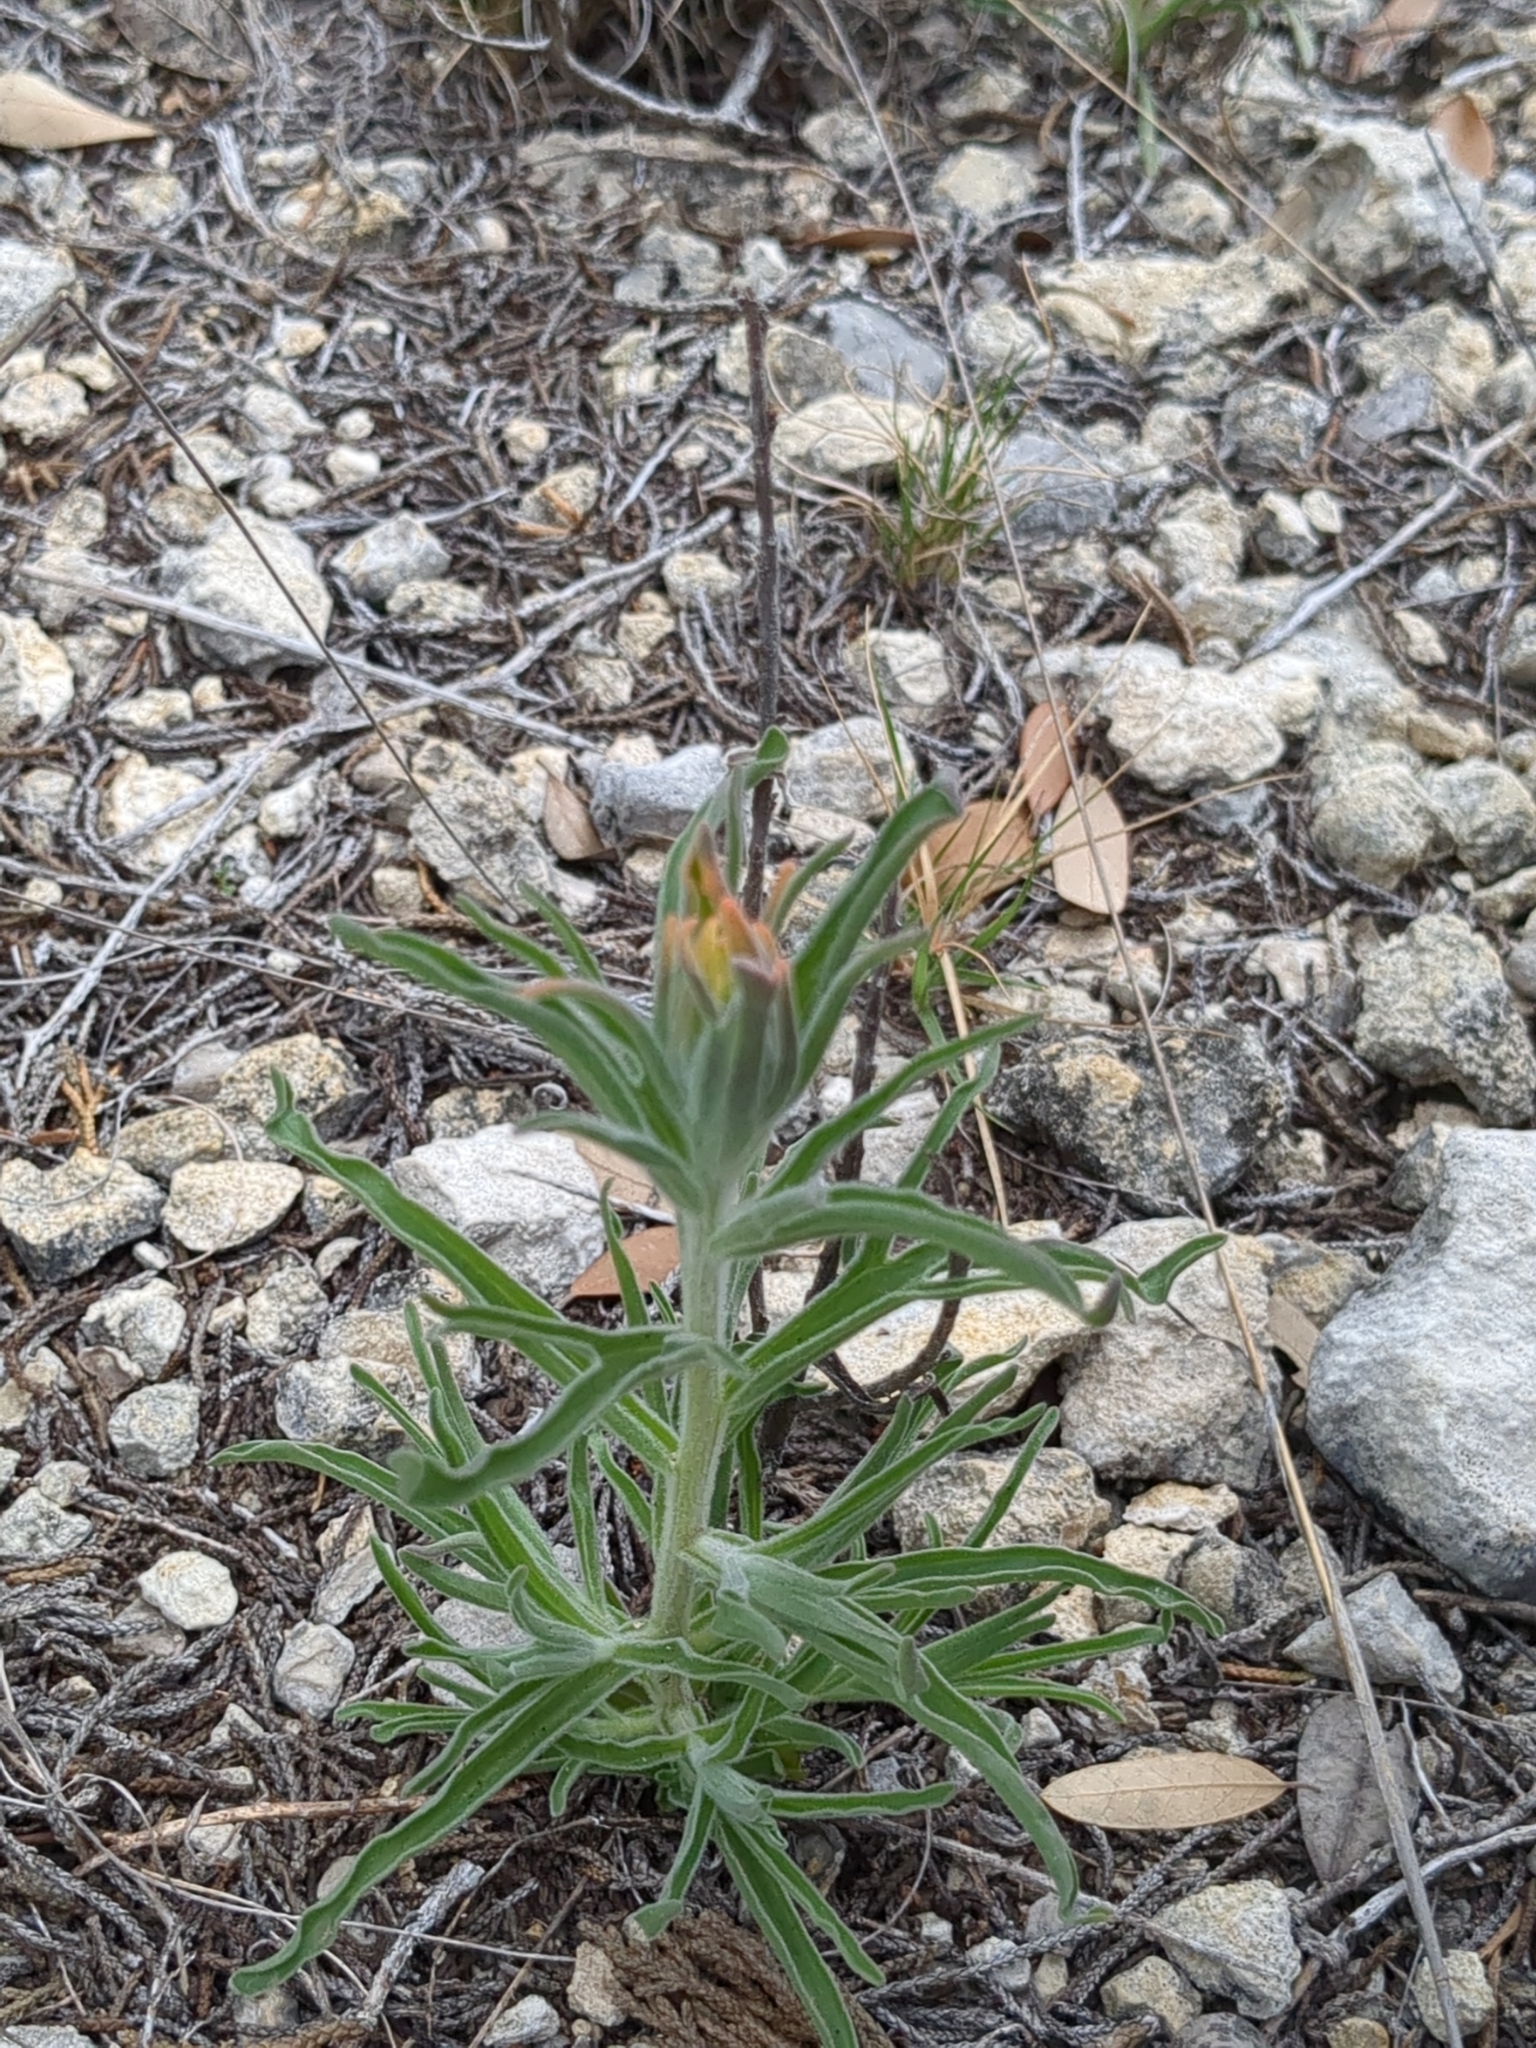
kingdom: Plantae
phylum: Tracheophyta
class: Magnoliopsida
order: Lamiales
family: Orobanchaceae
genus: Castilleja
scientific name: Castilleja lindheimeri
